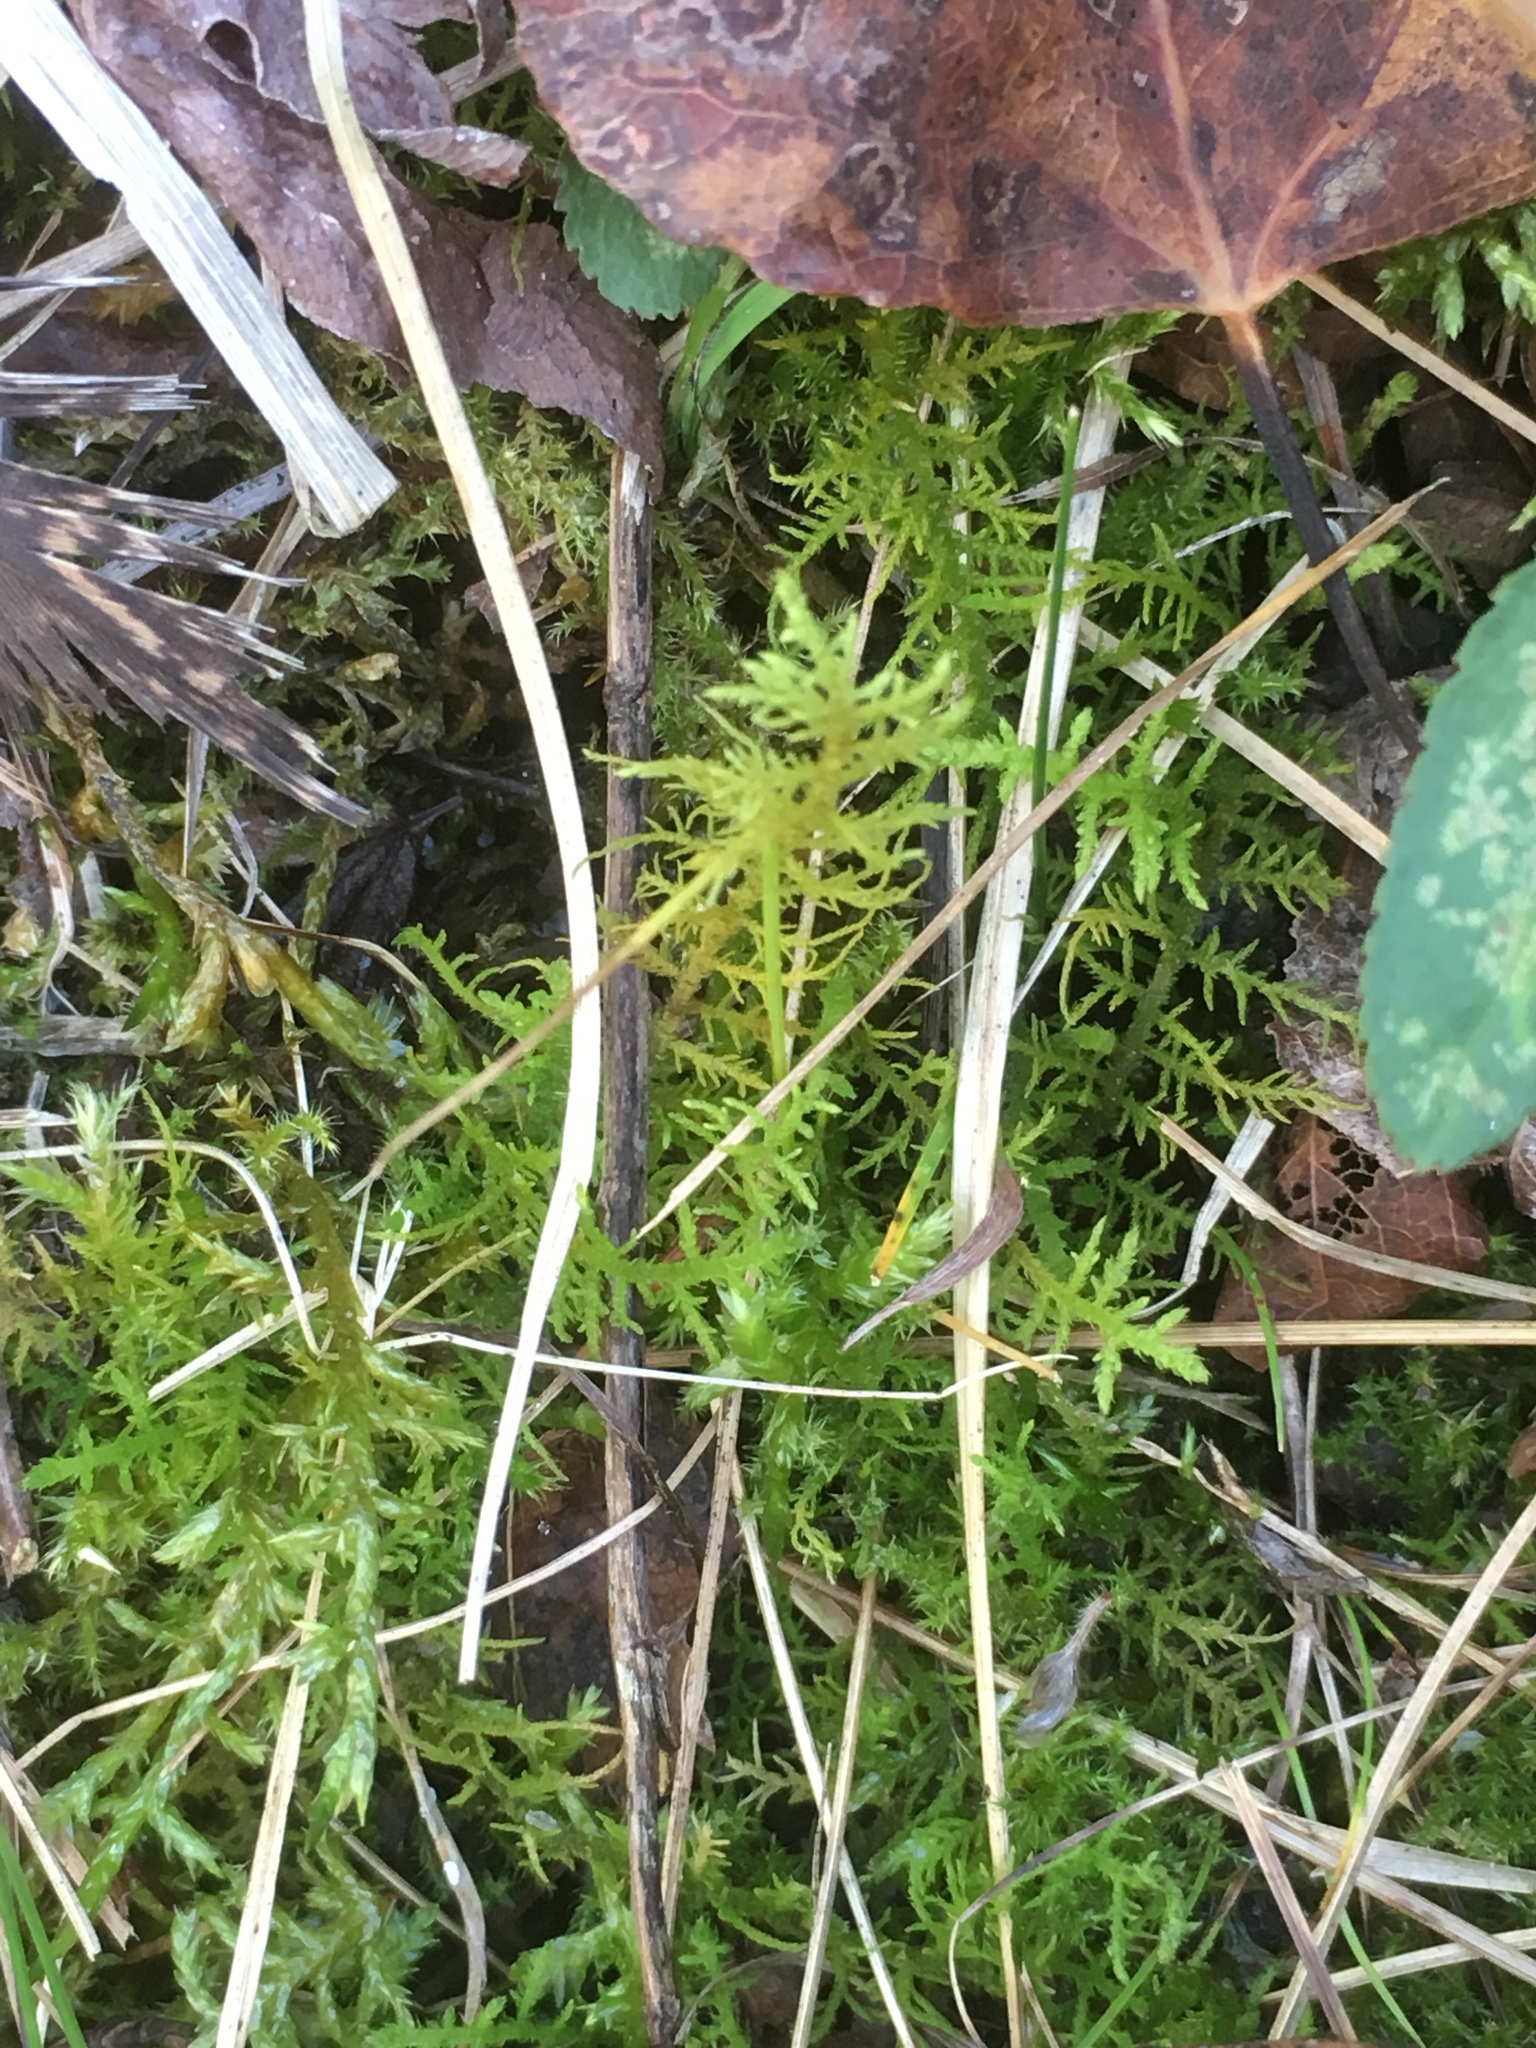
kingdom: Plantae
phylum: Bryophyta
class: Bryopsida
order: Hypnales
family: Thuidiaceae
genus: Thuidium
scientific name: Thuidium delicatulum
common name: Delicate fern moss
